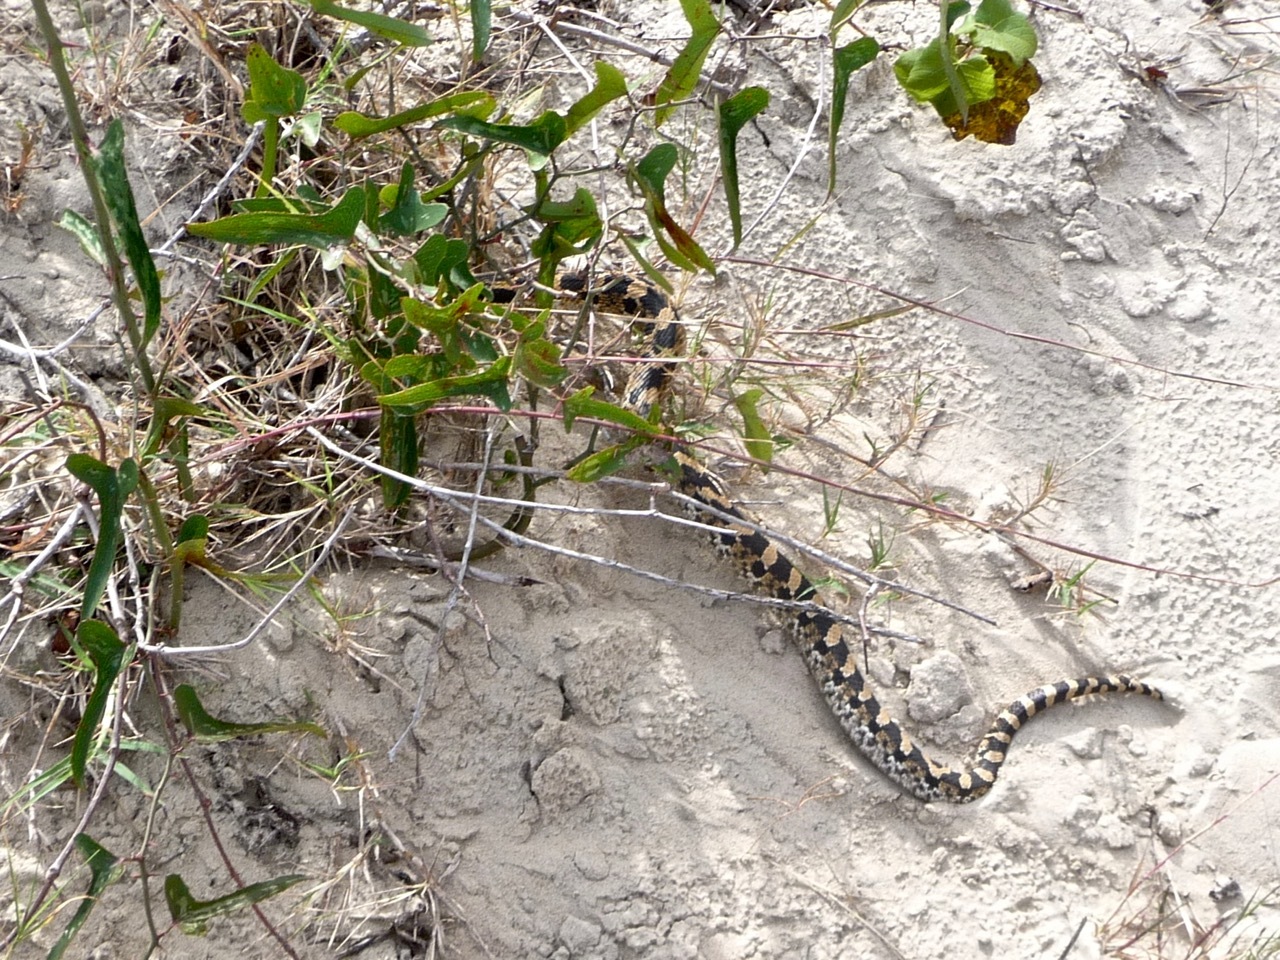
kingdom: Animalia
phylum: Chordata
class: Squamata
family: Colubridae
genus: Heterodon
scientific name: Heterodon platirhinos
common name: Eastern hognose snake
